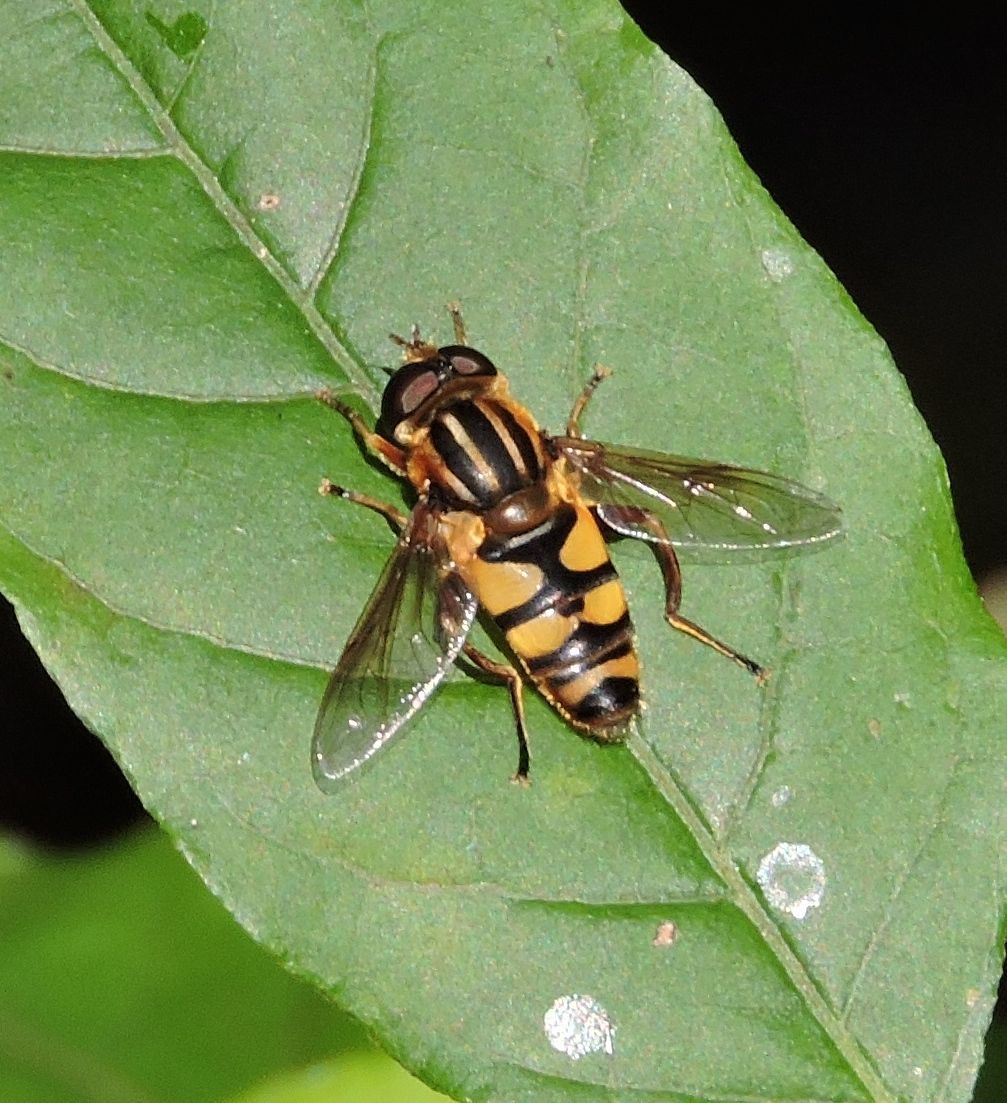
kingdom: Animalia
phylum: Arthropoda
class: Insecta
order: Diptera
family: Syrphidae
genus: Helophilus
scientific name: Helophilus fasciatus
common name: Narrow-headed marsh fly
